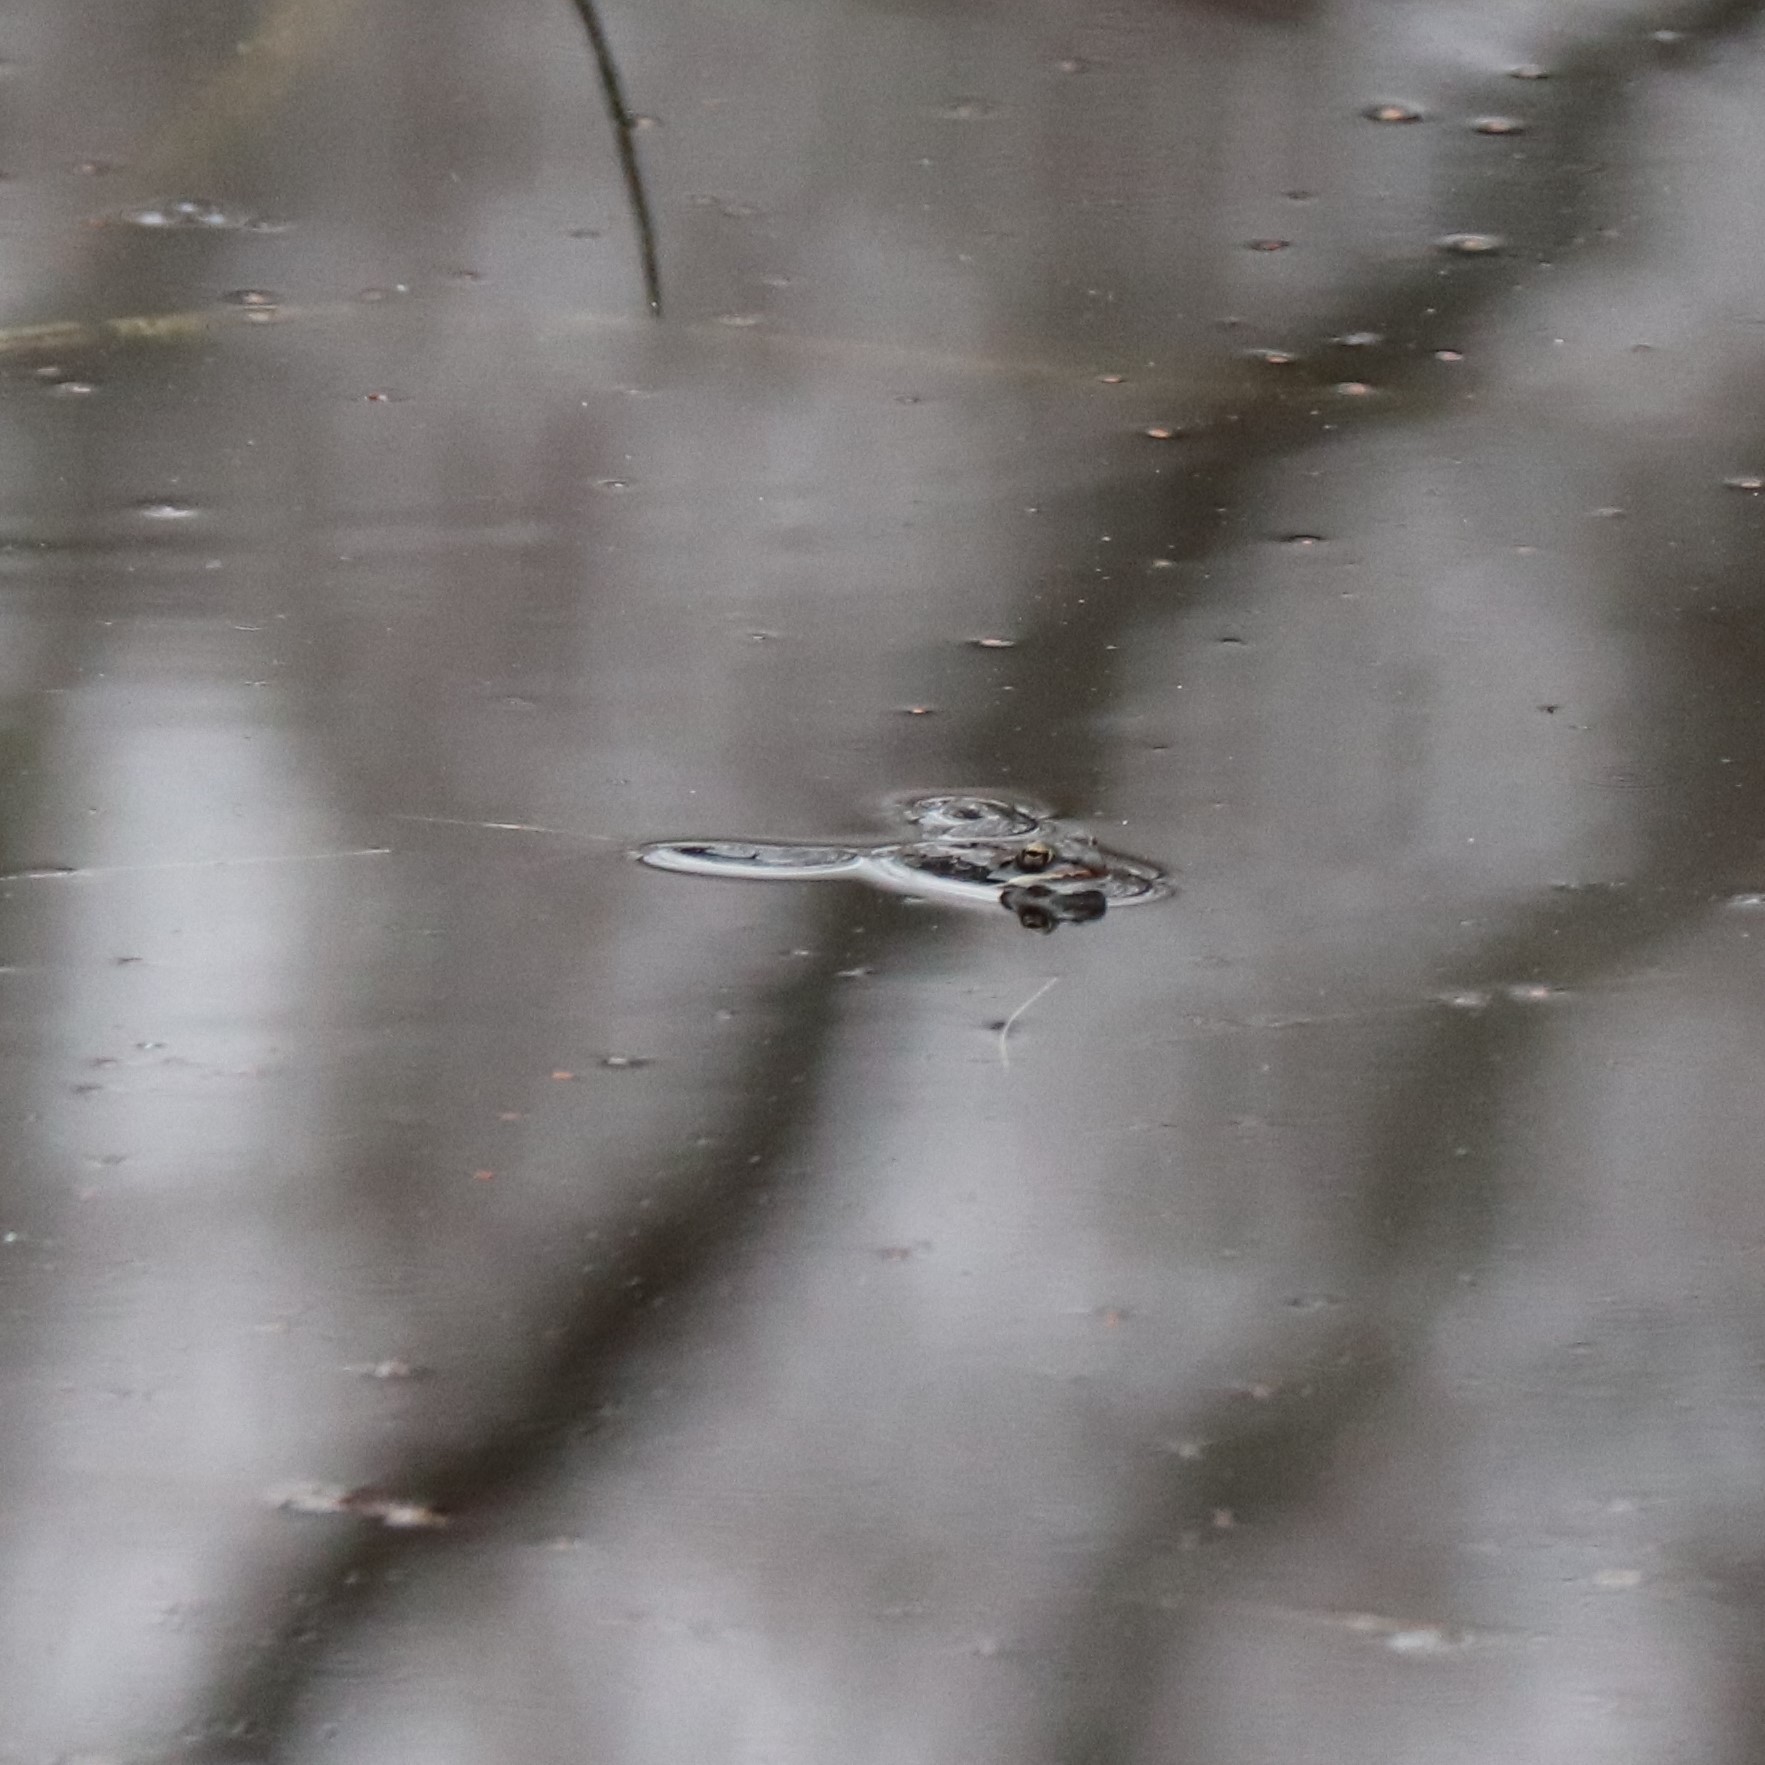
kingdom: Animalia
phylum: Chordata
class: Amphibia
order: Anura
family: Ranidae
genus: Lithobates
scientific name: Lithobates sylvaticus
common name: Wood frog
